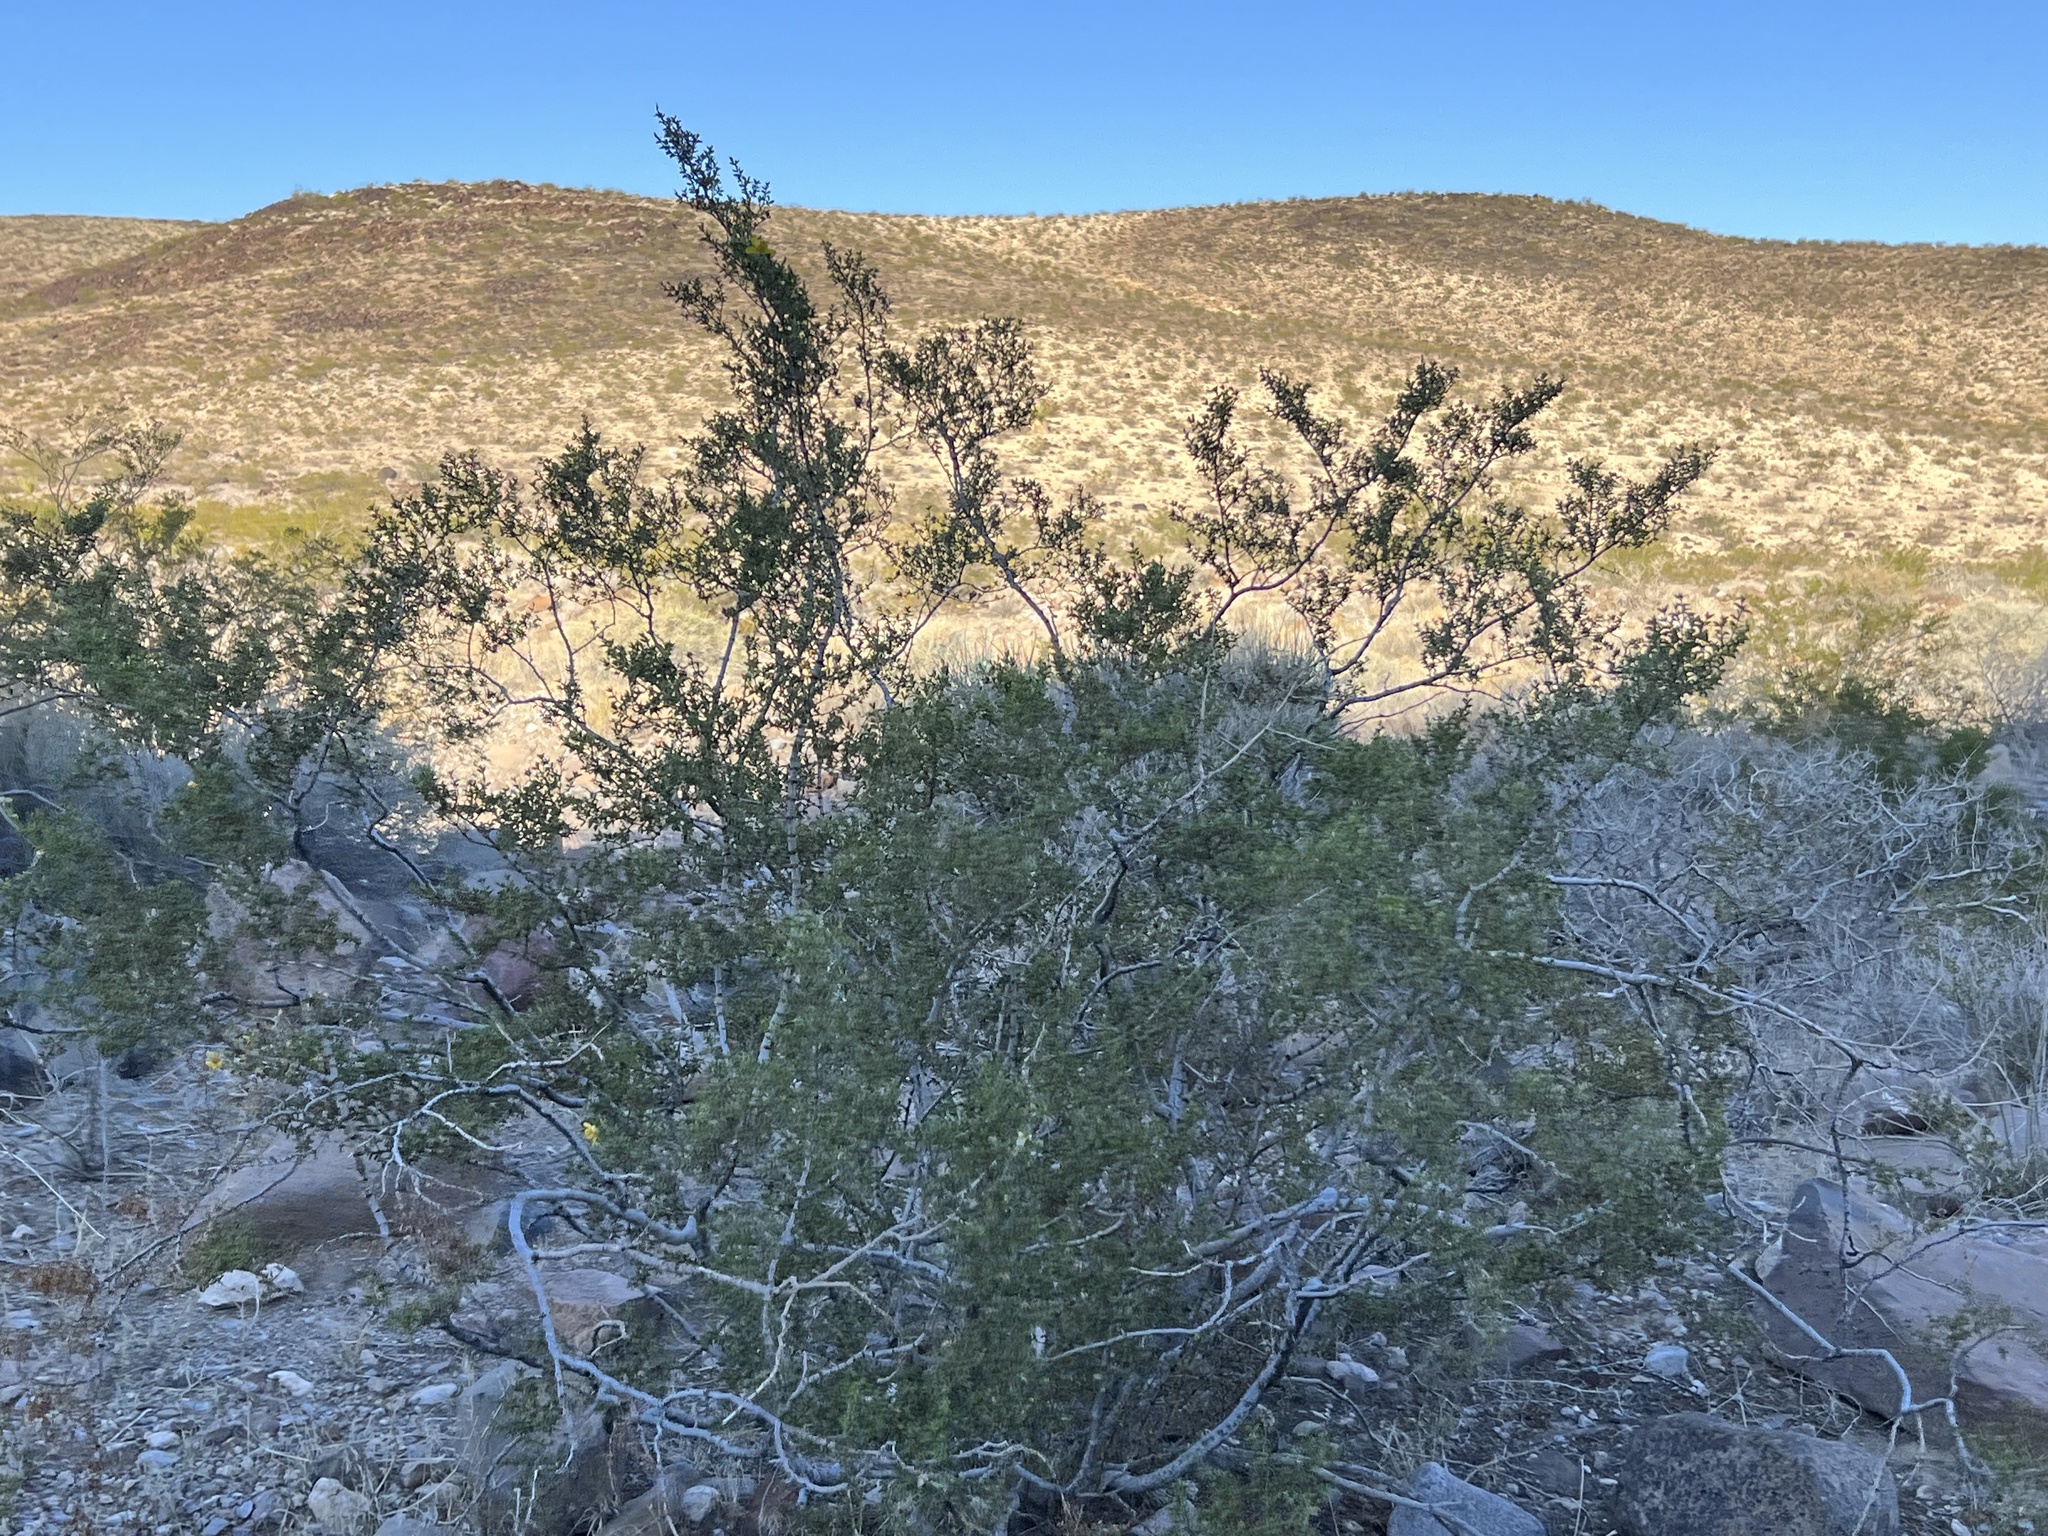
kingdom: Plantae
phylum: Tracheophyta
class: Magnoliopsida
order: Zygophyllales
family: Zygophyllaceae
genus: Larrea
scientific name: Larrea tridentata
